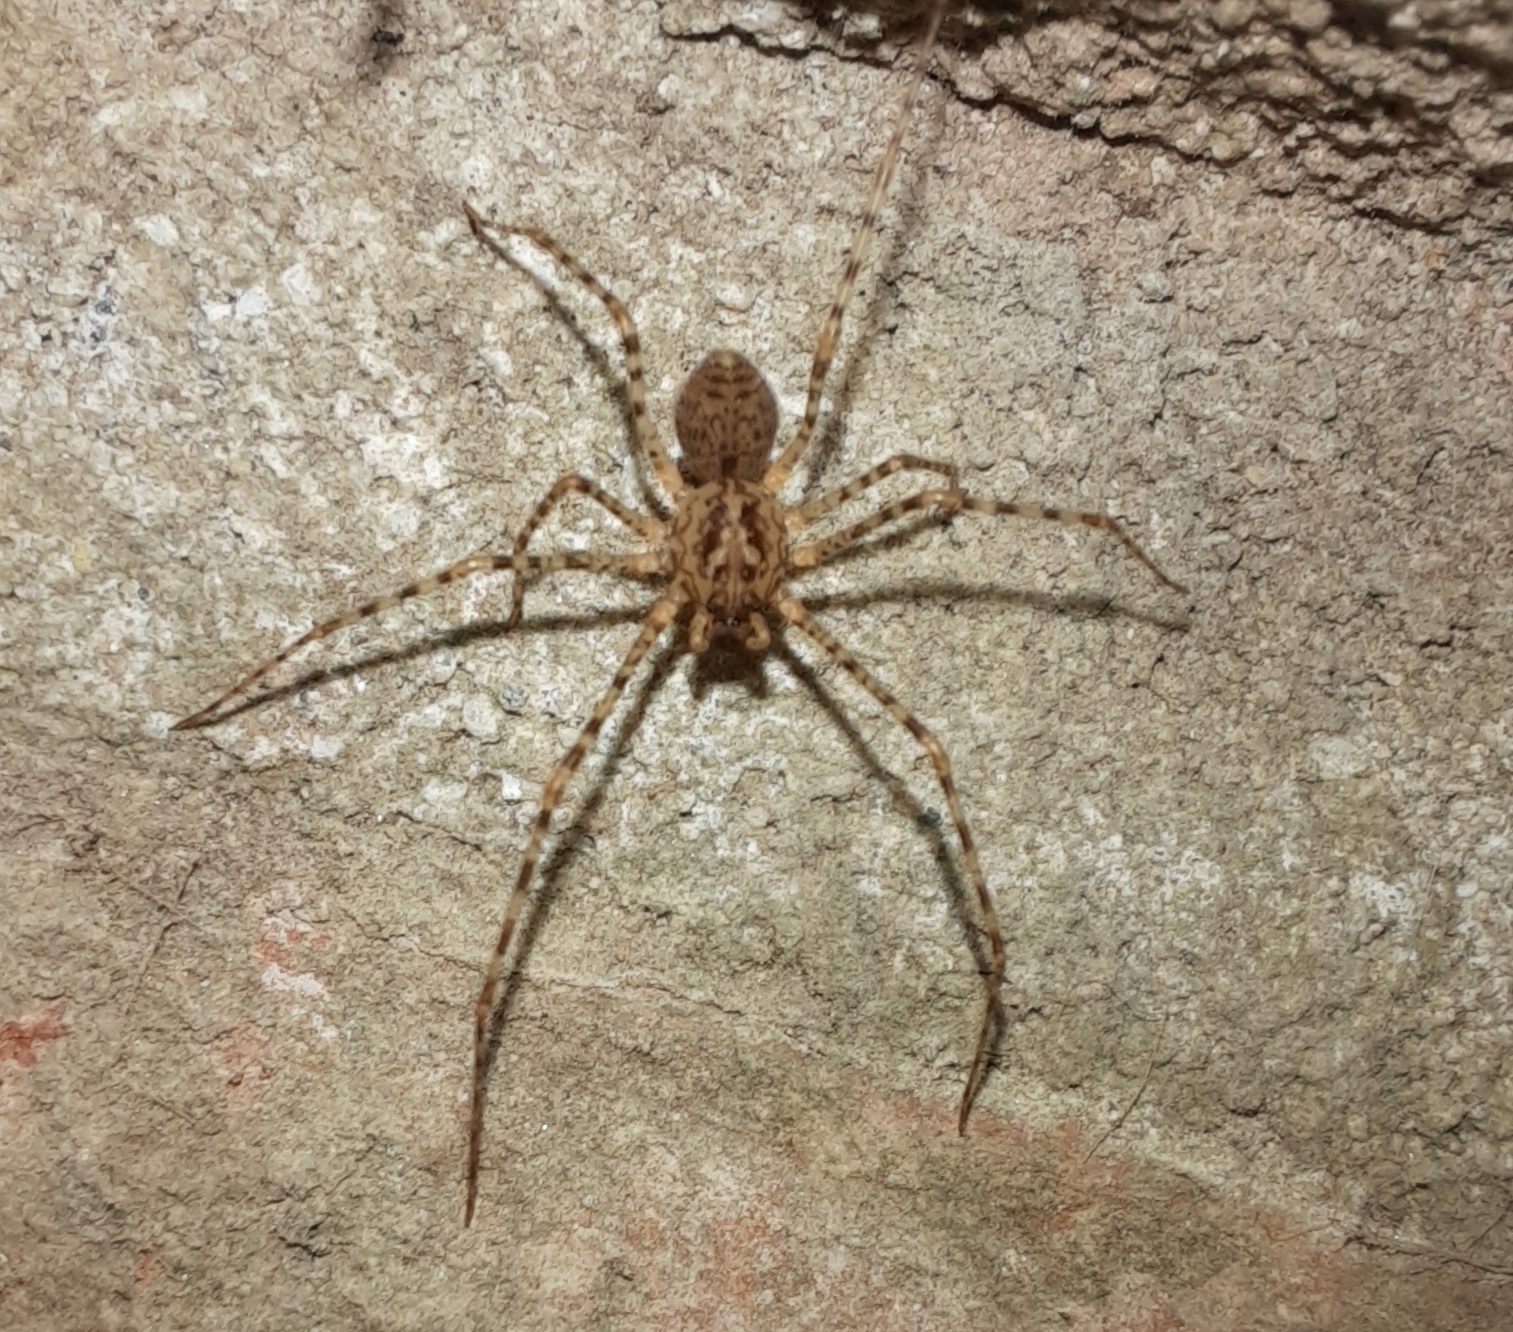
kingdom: Animalia
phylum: Arthropoda
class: Arachnida
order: Araneae
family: Scytodidae
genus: Scytodes
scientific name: Scytodes globula
